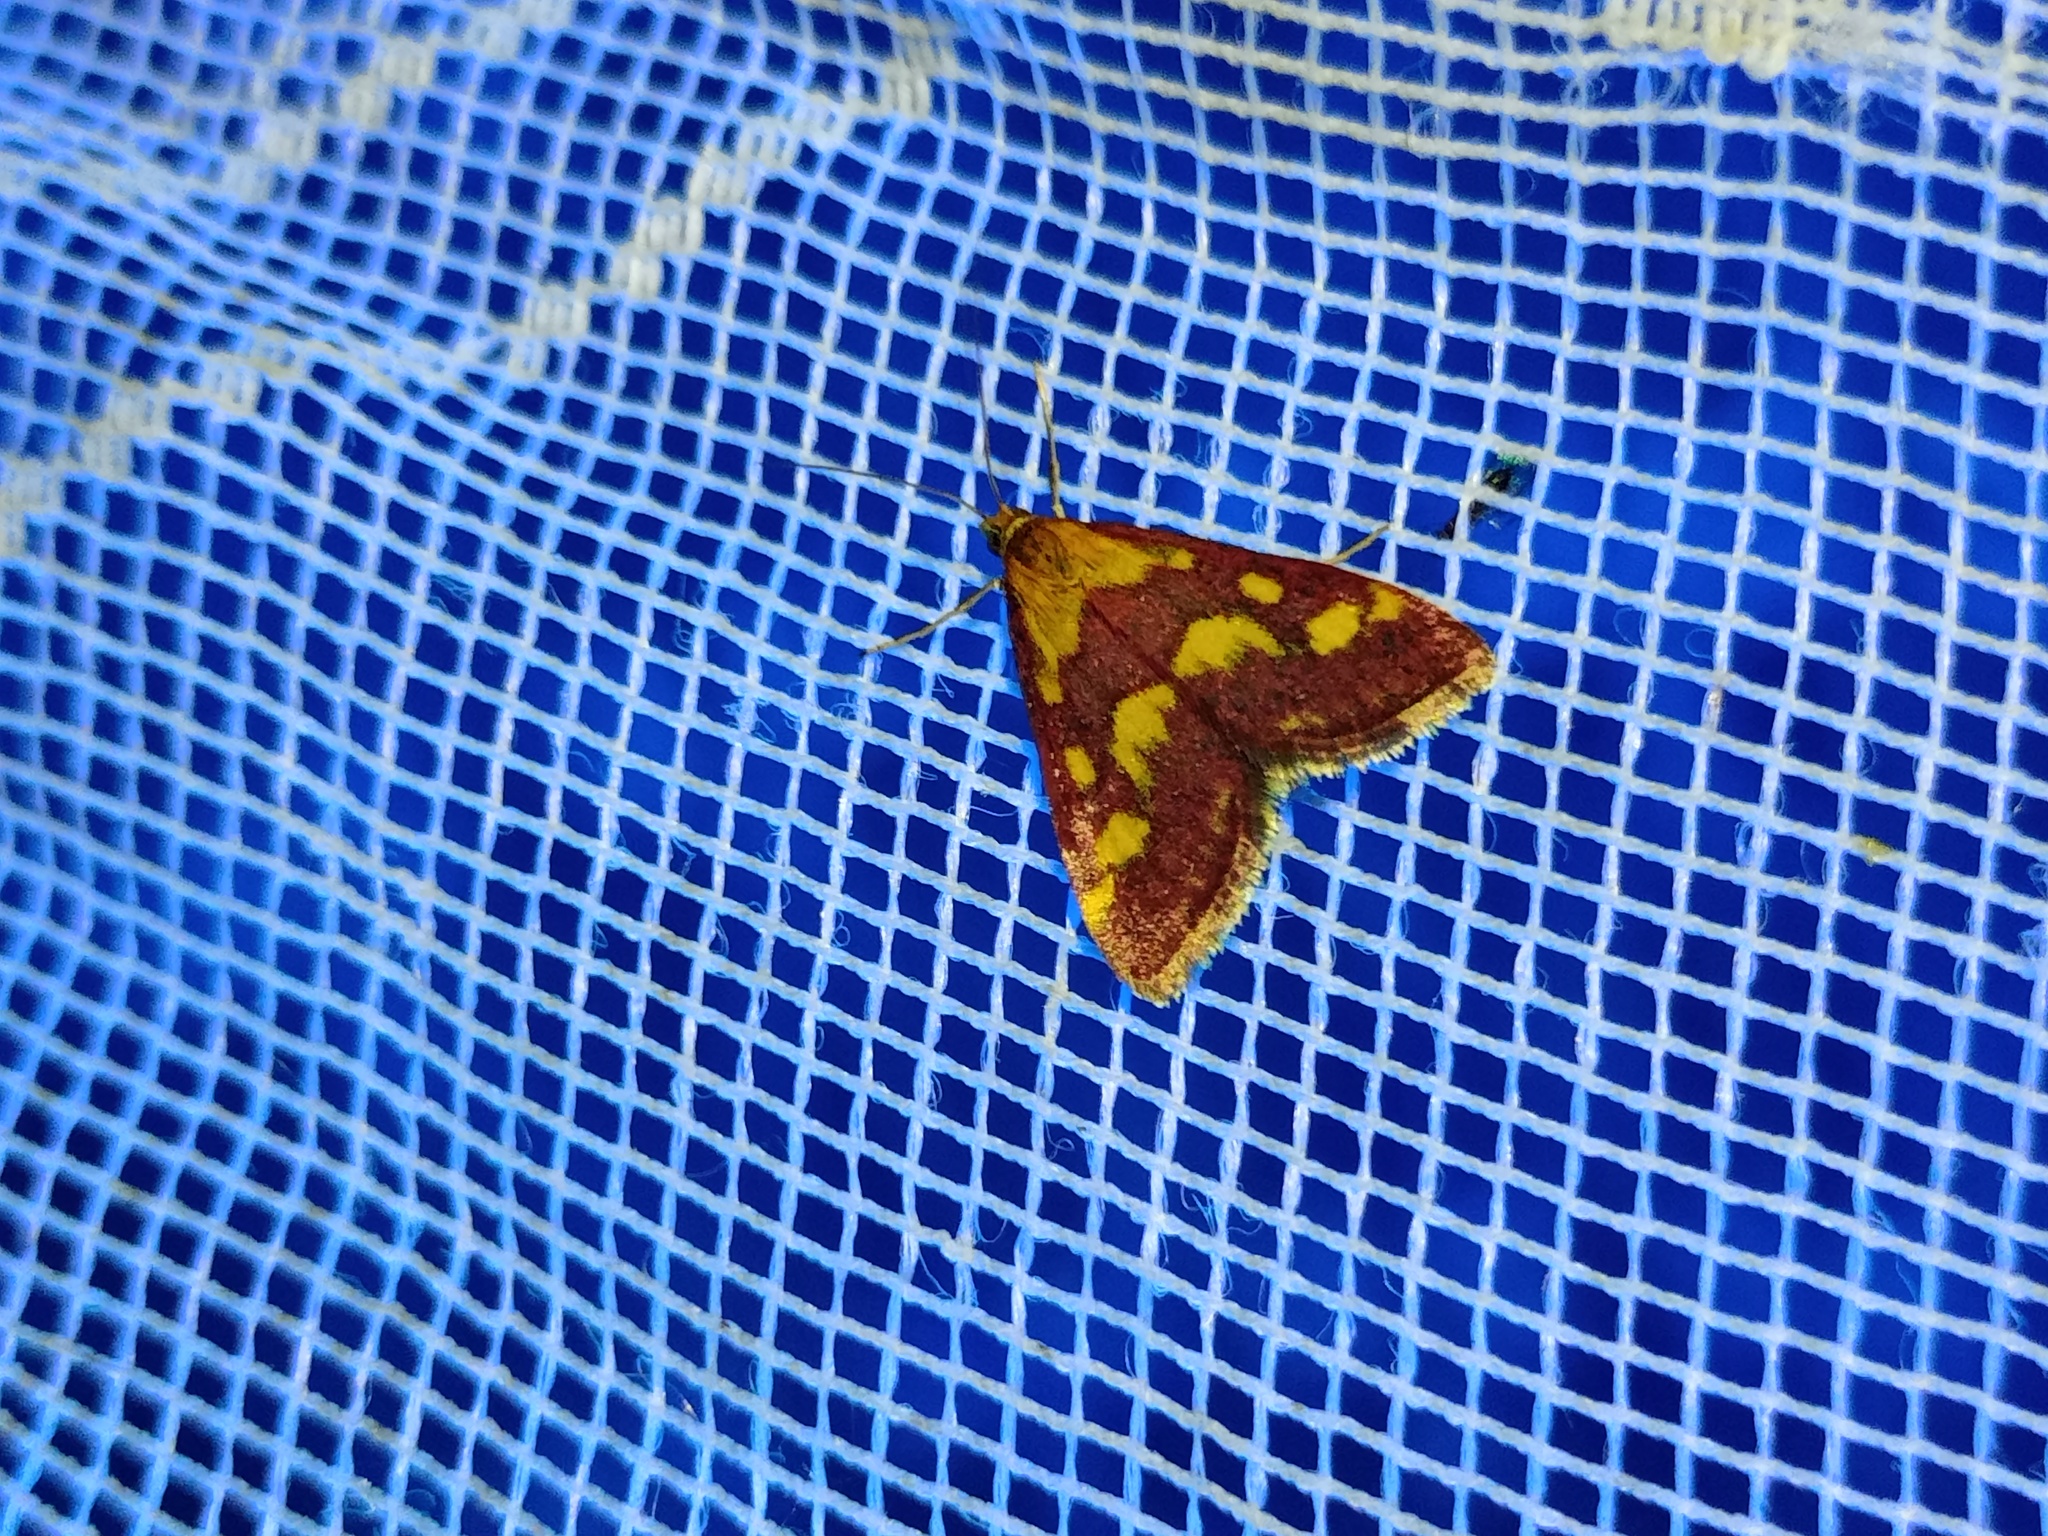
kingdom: Animalia
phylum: Arthropoda
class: Insecta
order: Lepidoptera
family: Crambidae
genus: Pyrausta
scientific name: Pyrausta purpuralis
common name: Common purple & gold
